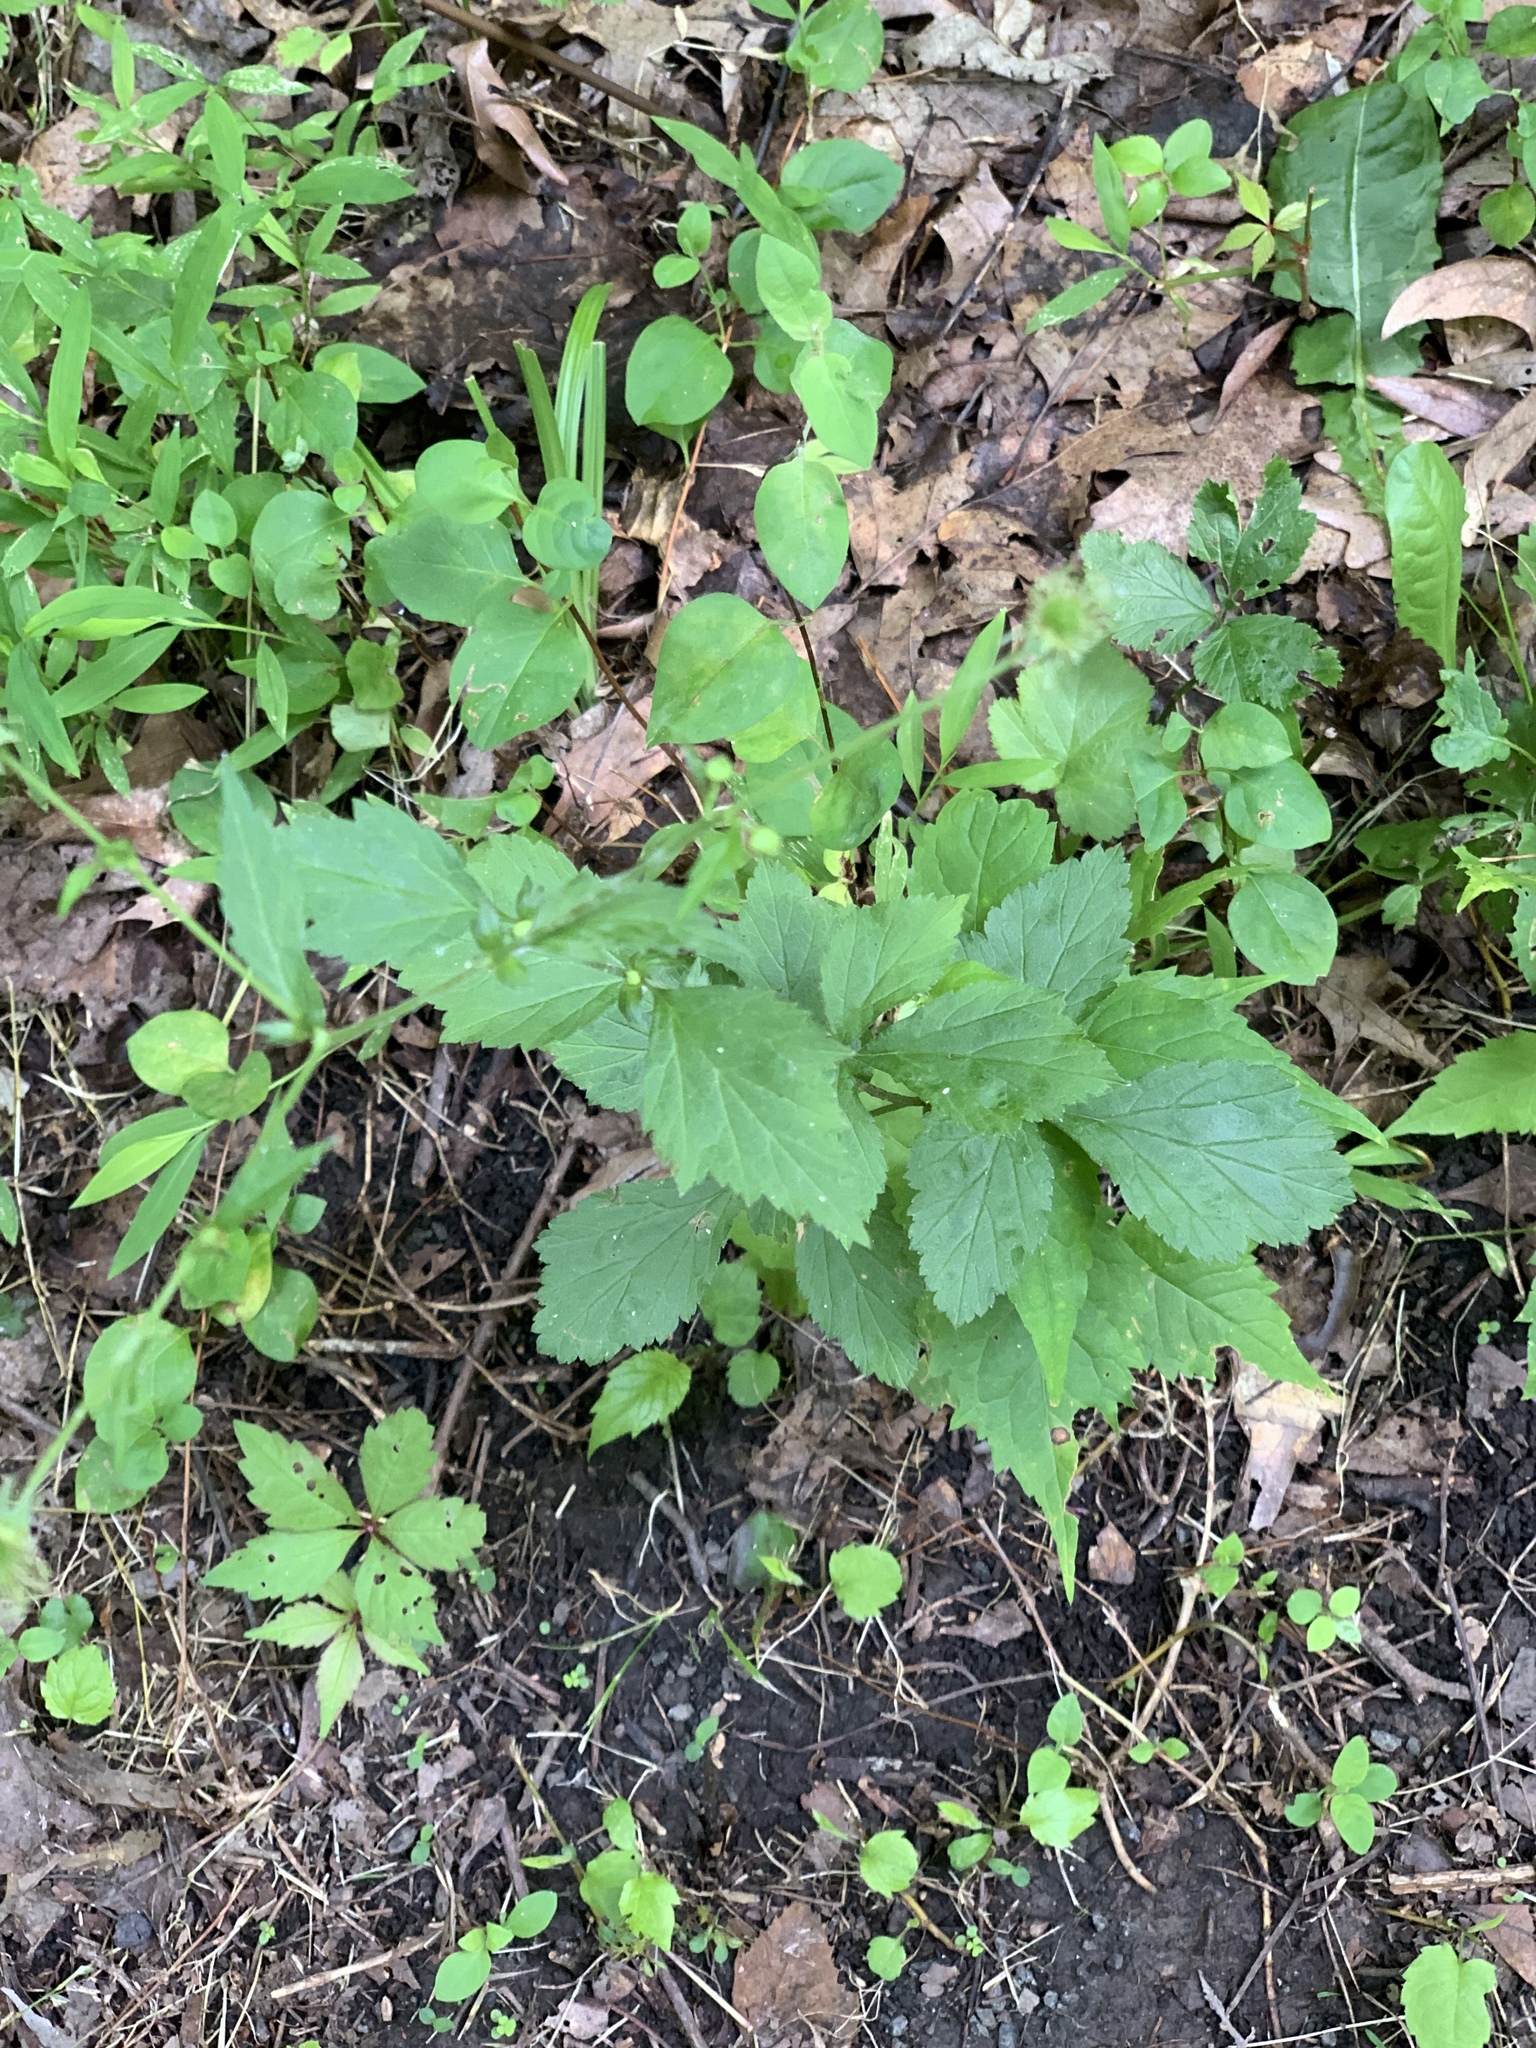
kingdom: Plantae
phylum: Tracheophyta
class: Magnoliopsida
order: Rosales
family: Rosaceae
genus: Geum
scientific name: Geum canadense
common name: White avens
